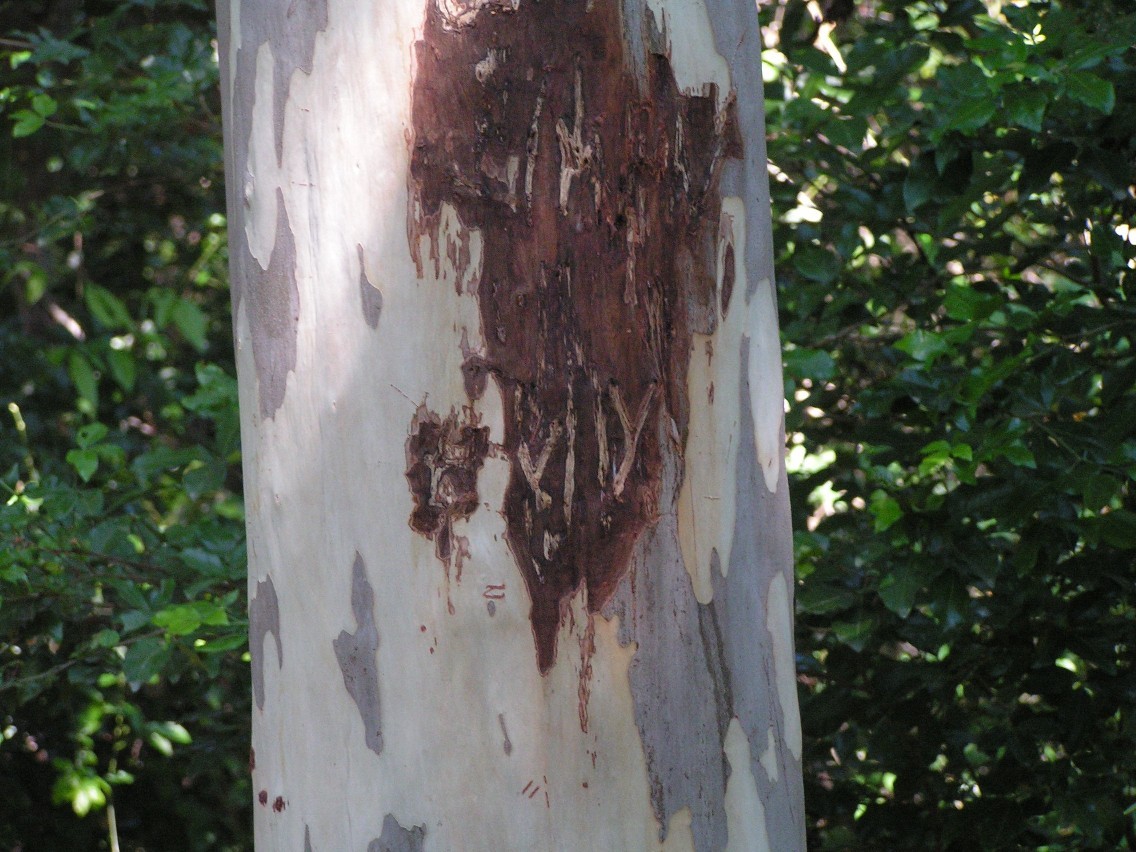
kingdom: Plantae
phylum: Tracheophyta
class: Magnoliopsida
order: Fabales
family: Fabaceae
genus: Libidibia
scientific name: Libidibia sclerocarpa
